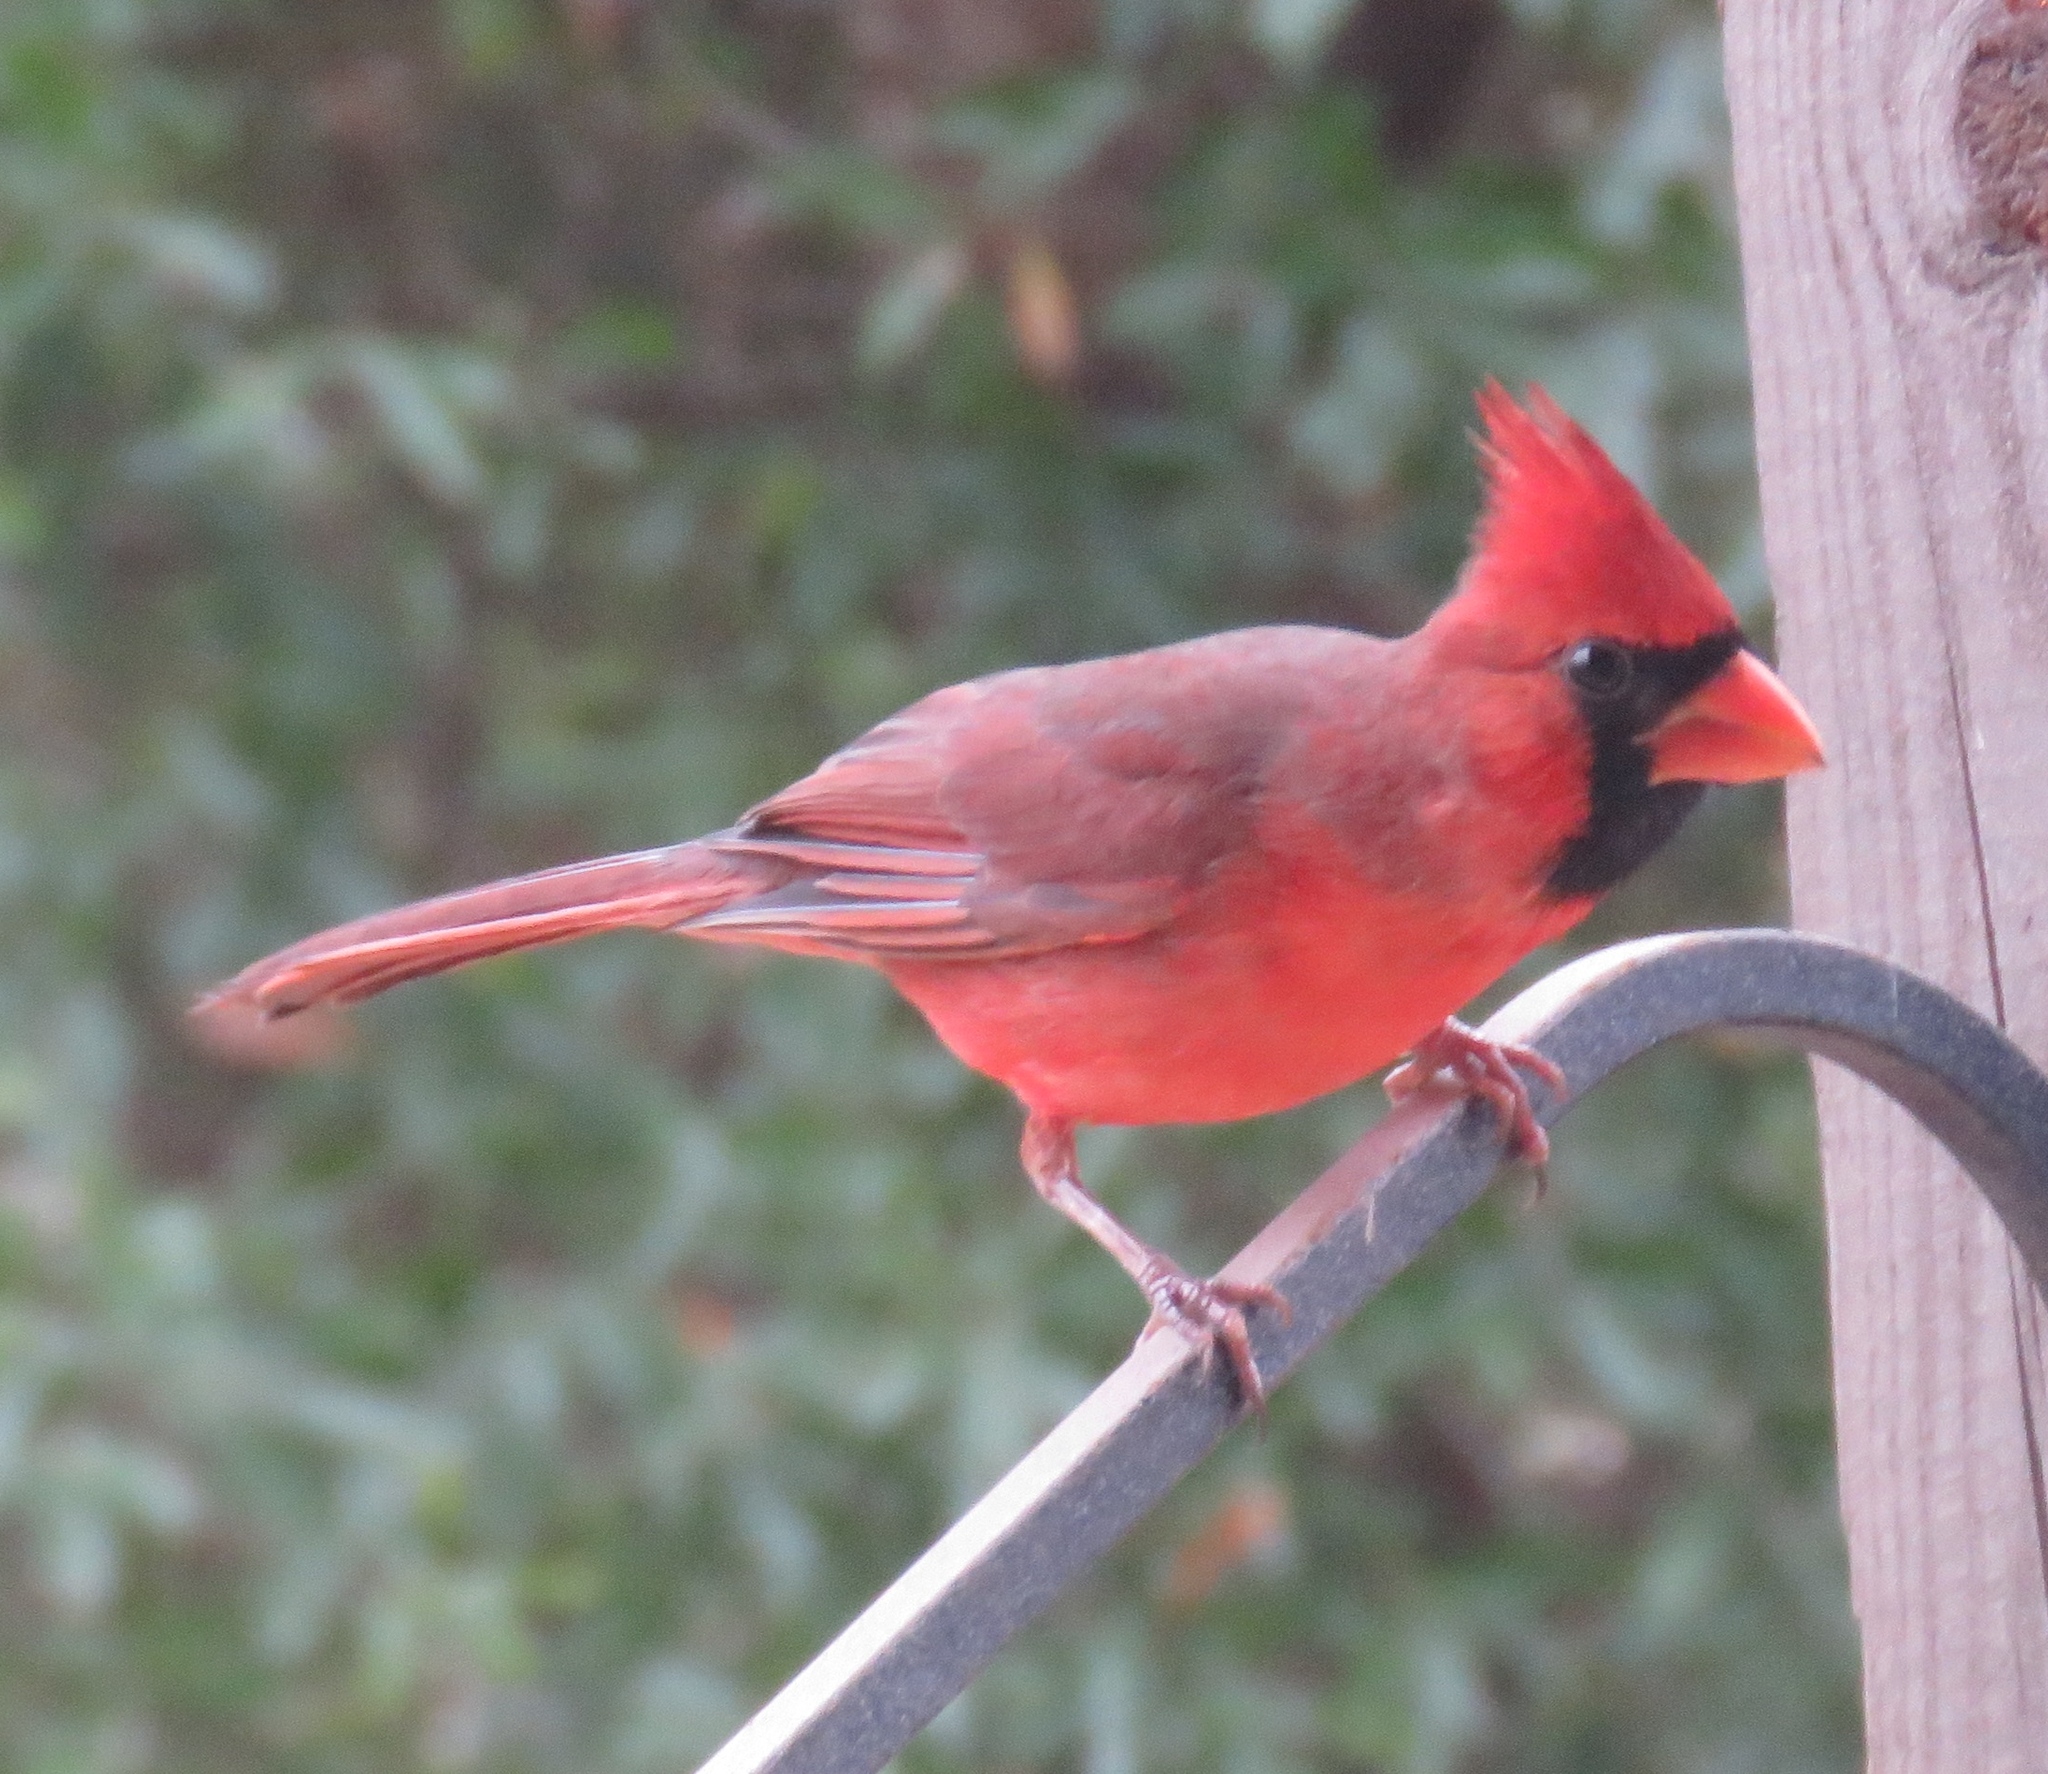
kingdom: Animalia
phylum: Chordata
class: Aves
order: Passeriformes
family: Cardinalidae
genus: Cardinalis
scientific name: Cardinalis cardinalis
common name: Northern cardinal
